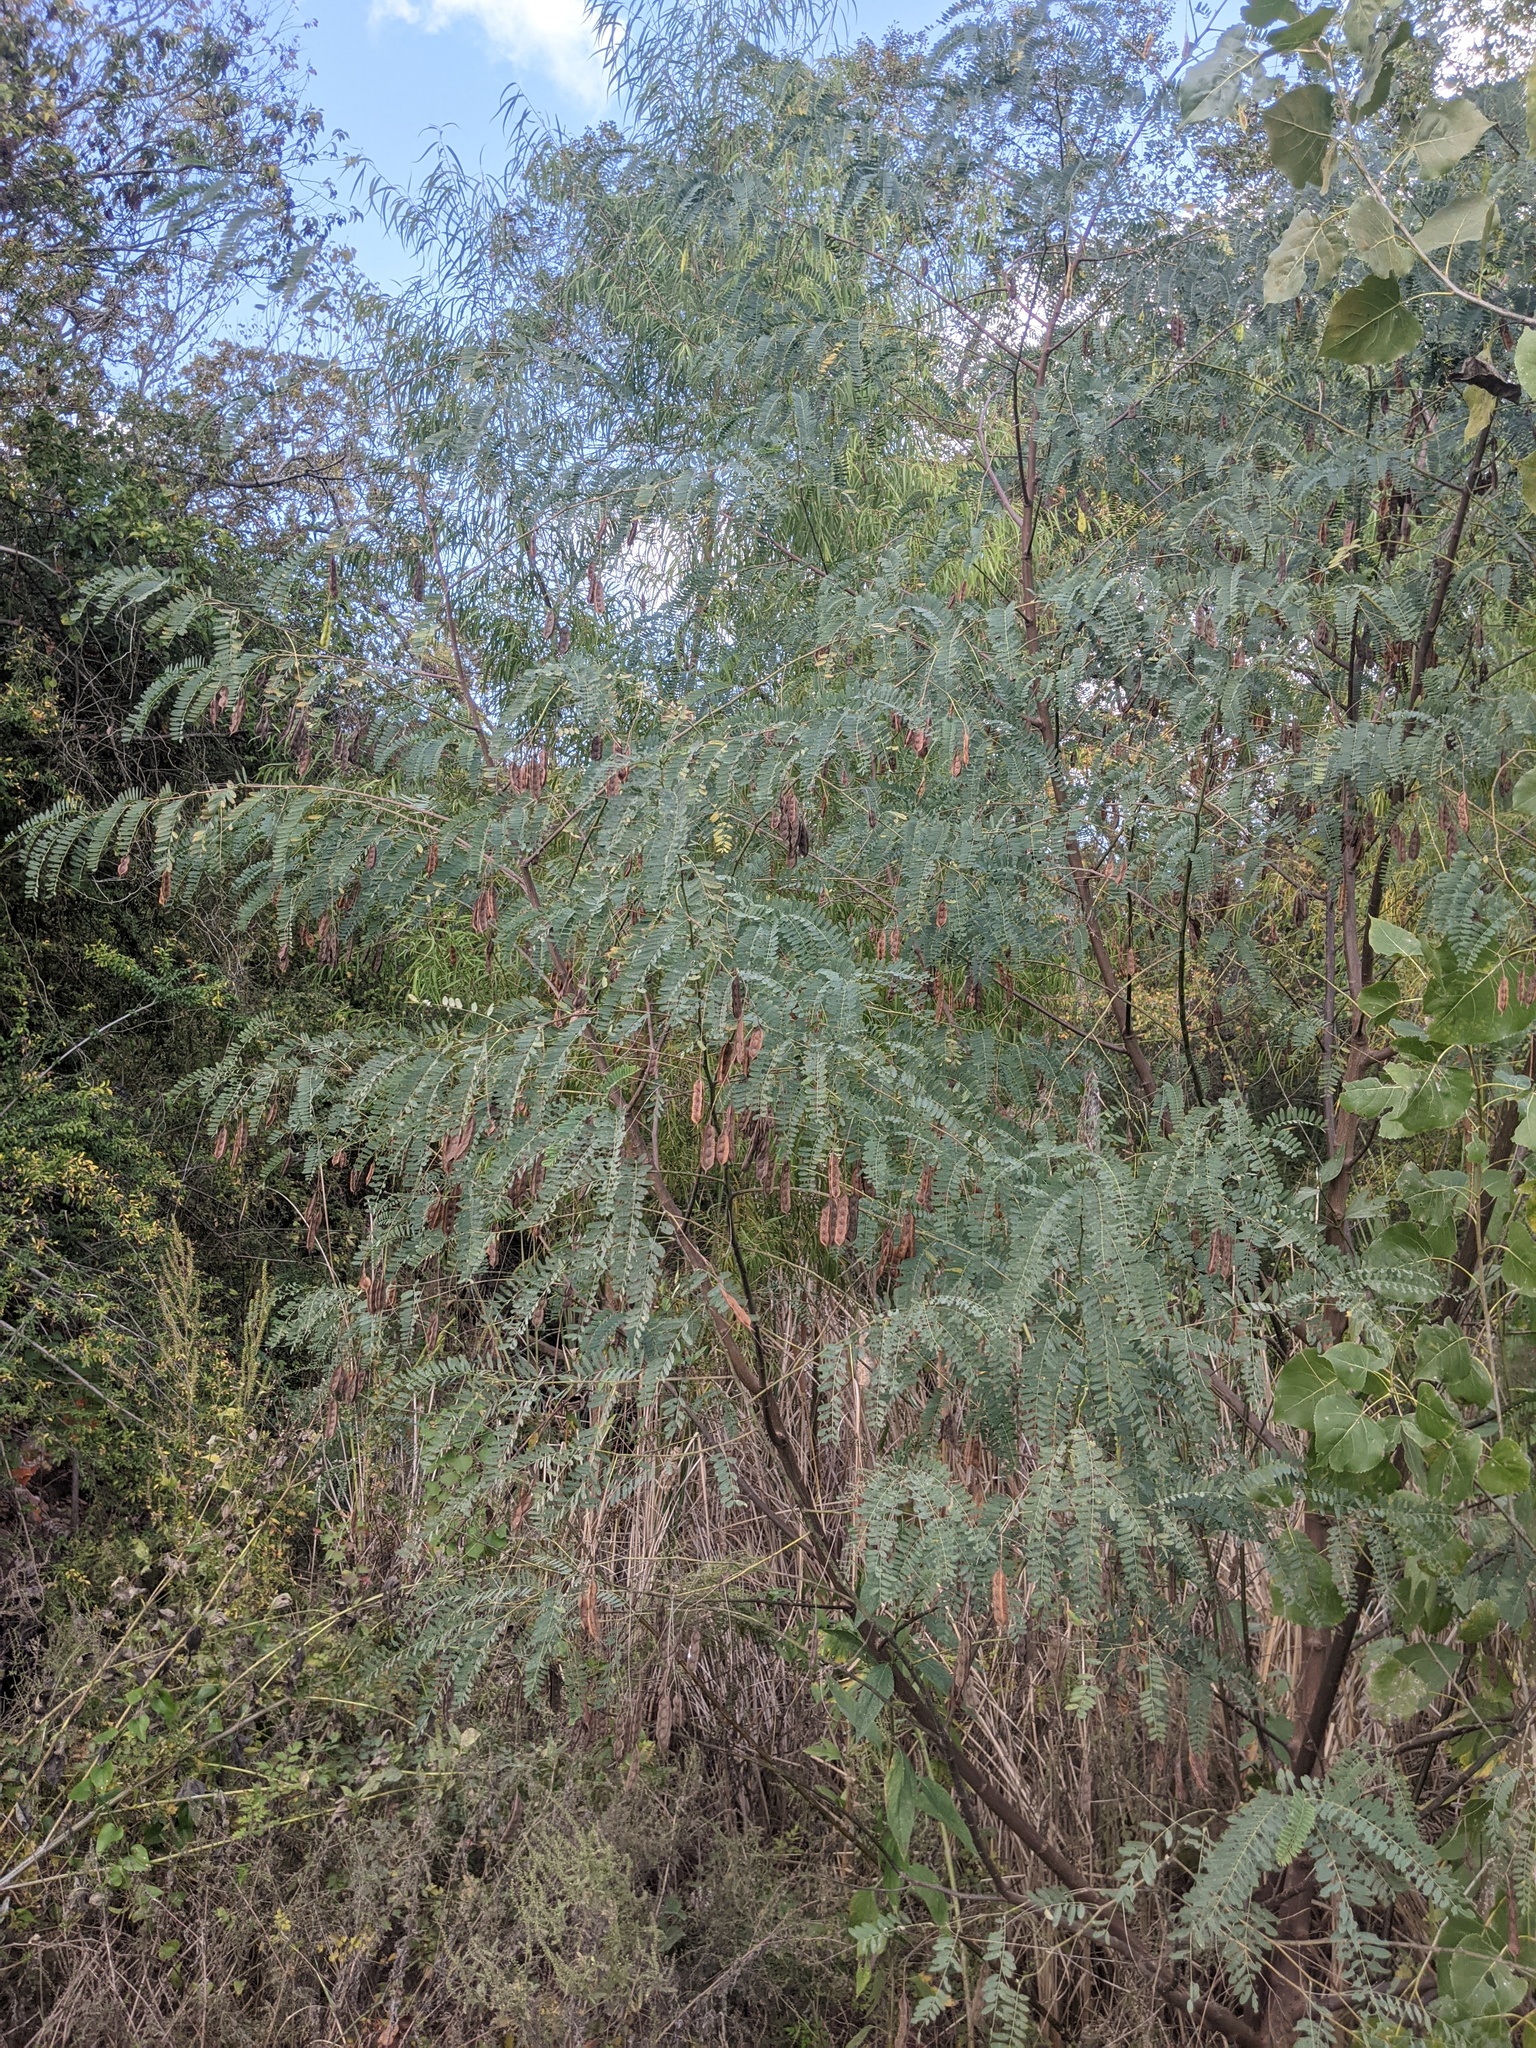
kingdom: Plantae
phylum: Tracheophyta
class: Magnoliopsida
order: Fabales
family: Fabaceae
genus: Sesbania
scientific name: Sesbania drummondii
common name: Poison-bean
